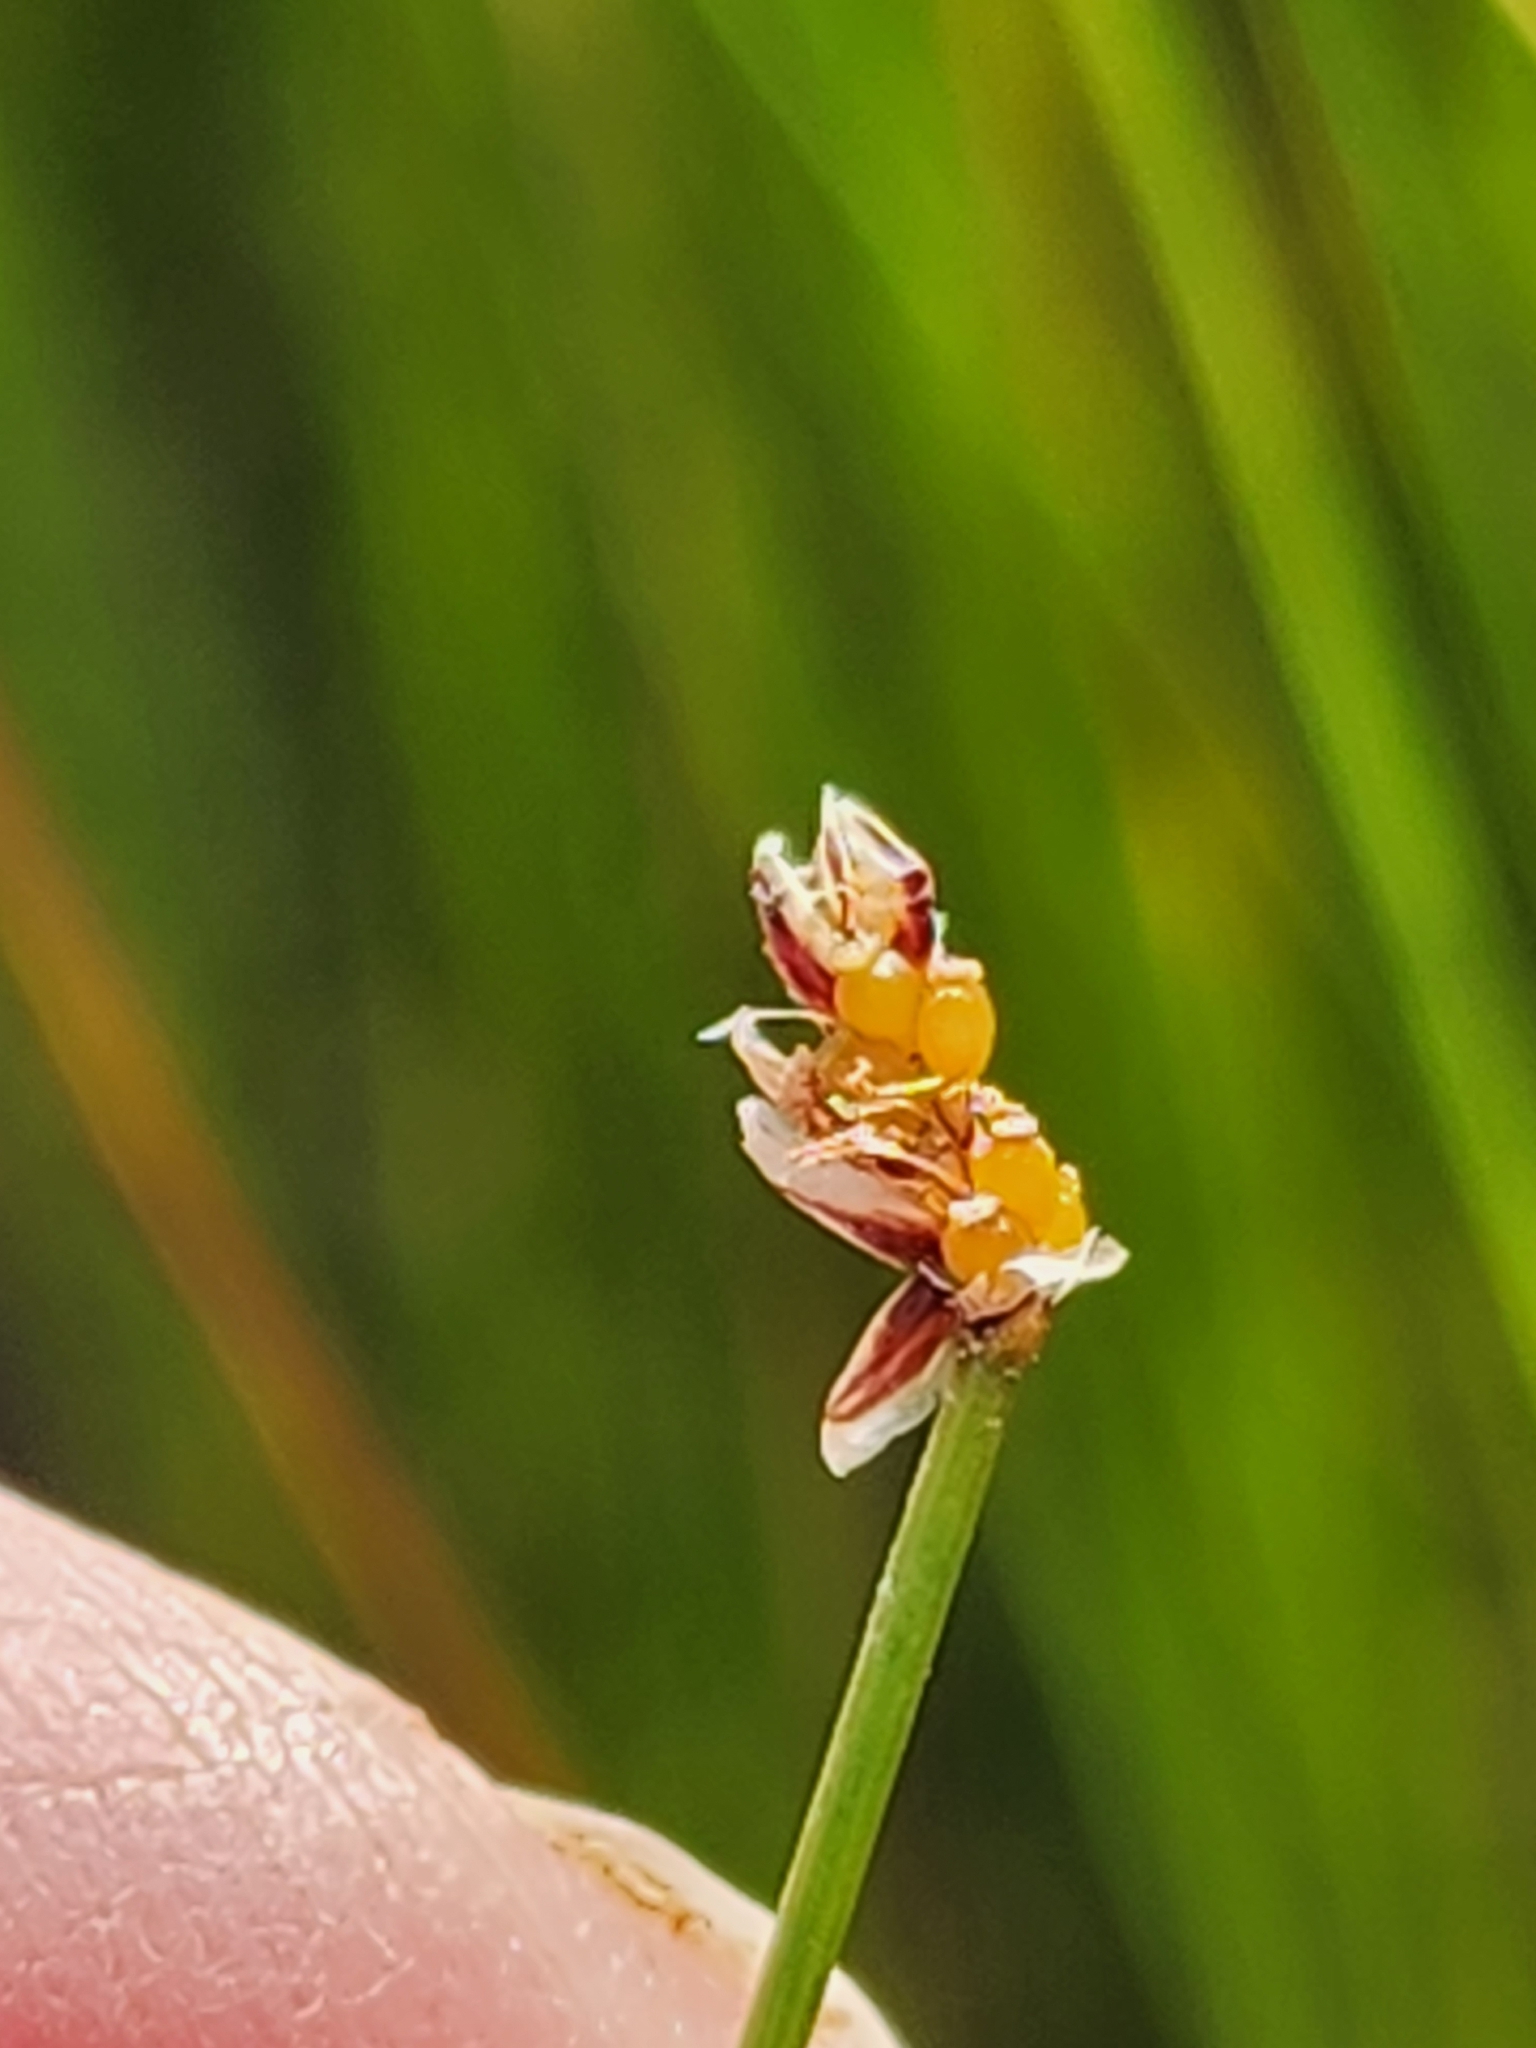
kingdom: Plantae
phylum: Tracheophyta
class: Liliopsida
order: Poales
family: Cyperaceae
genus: Eleocharis
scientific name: Eleocharis compressa
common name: Flat-stem spike-rush
